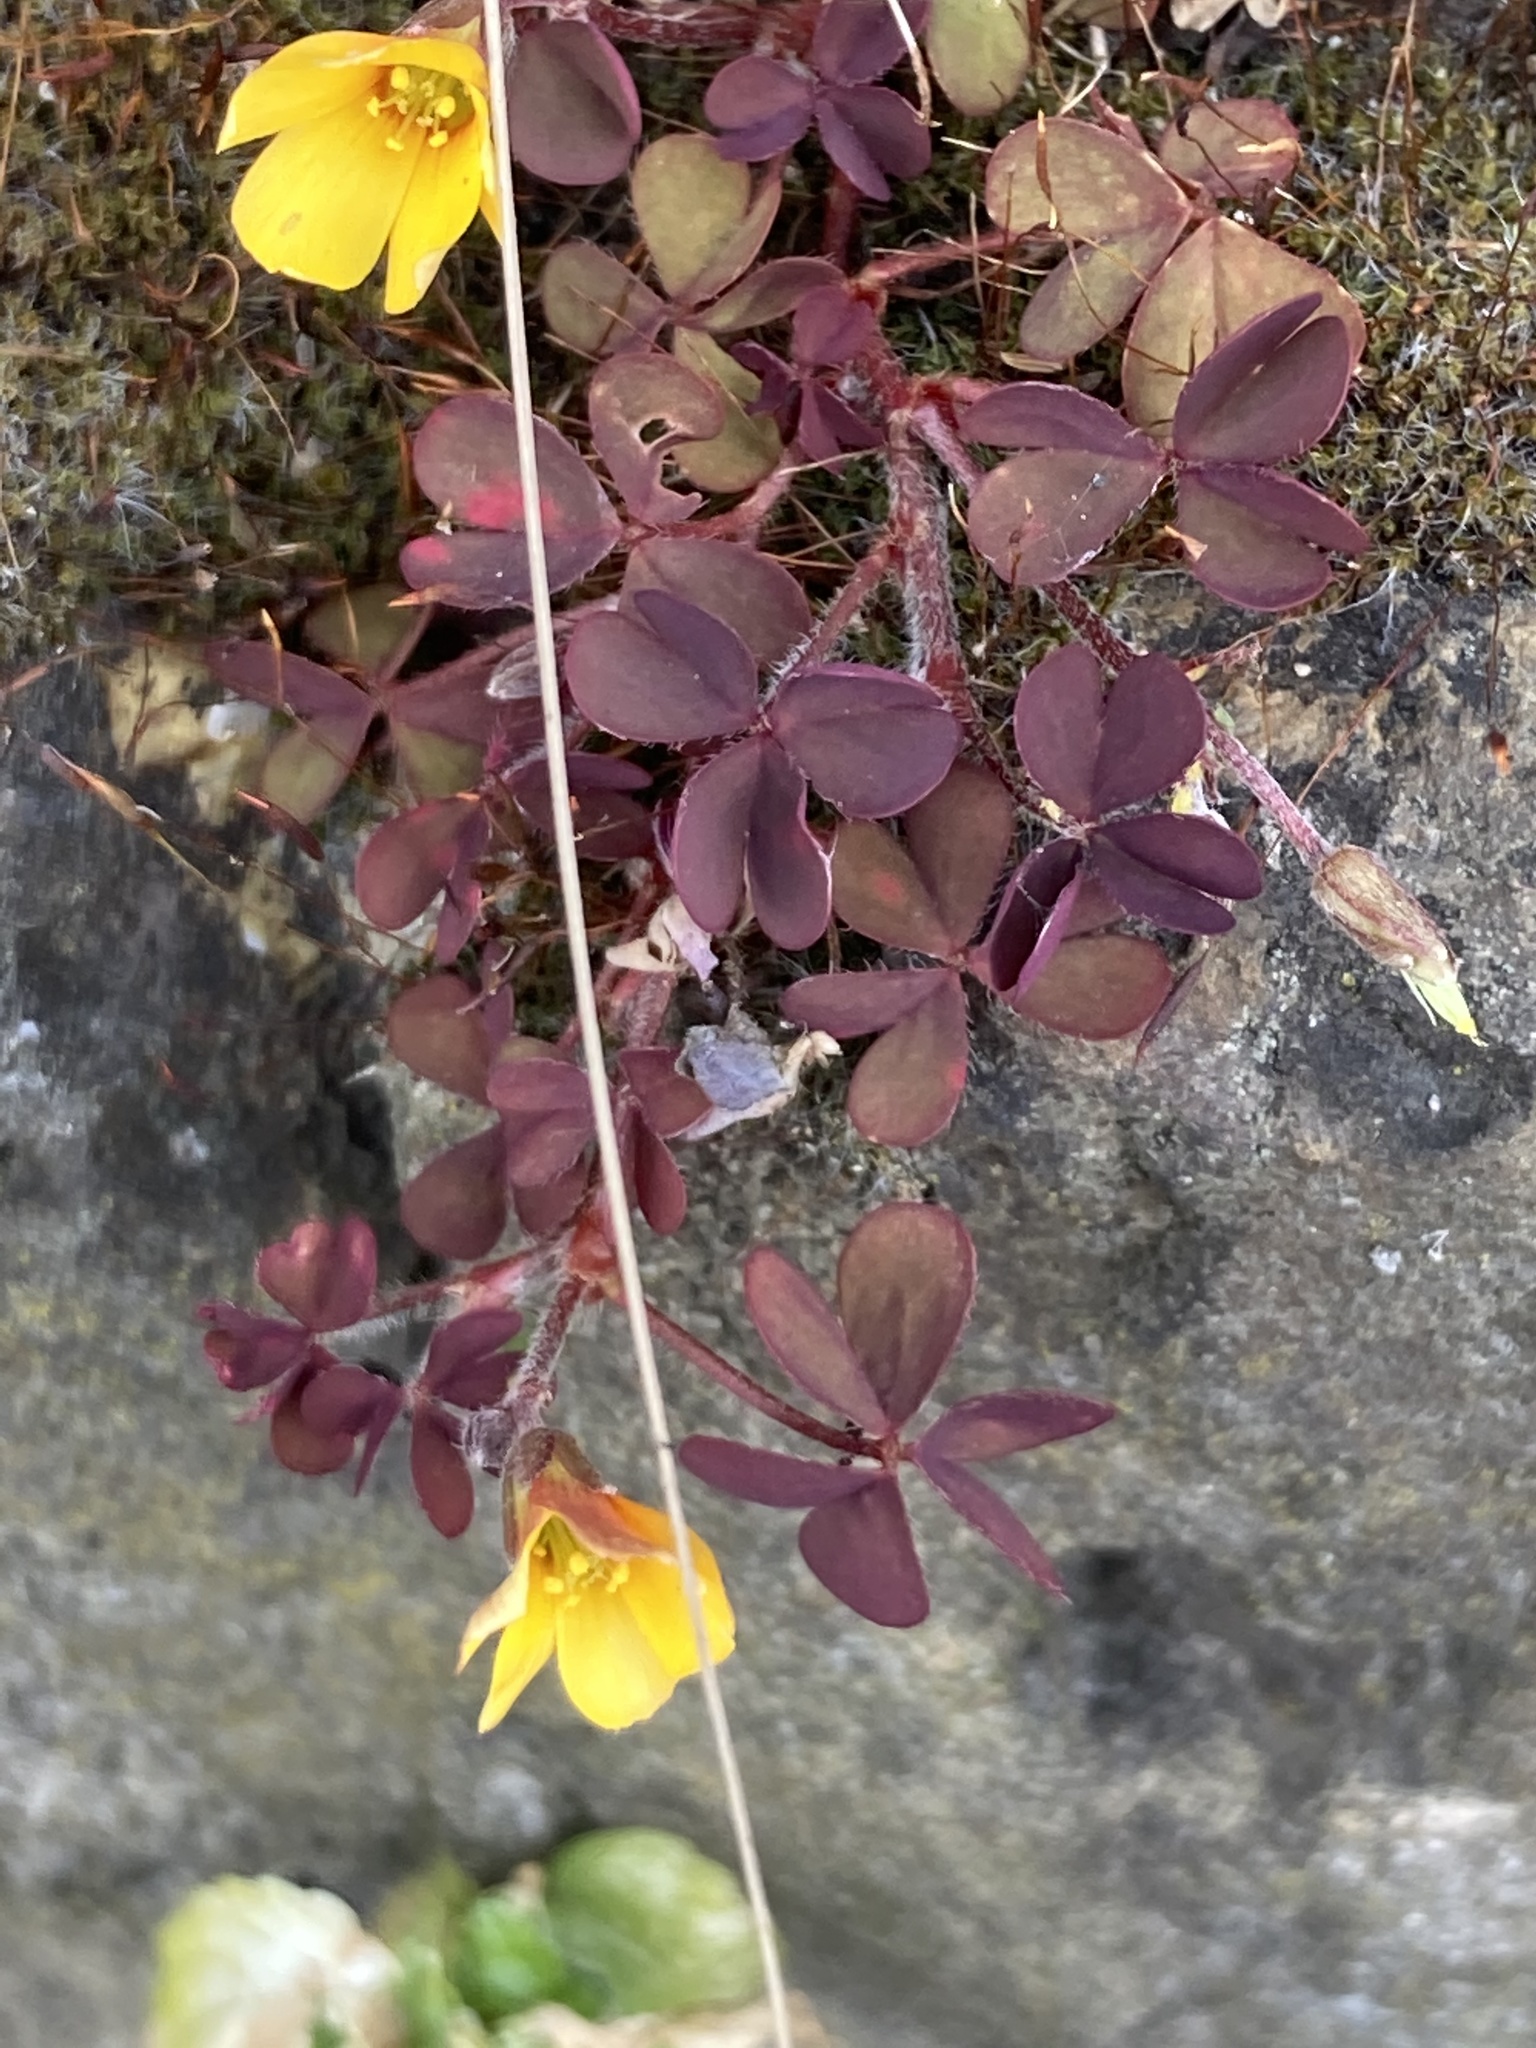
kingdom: Plantae
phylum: Tracheophyta
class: Magnoliopsida
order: Oxalidales
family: Oxalidaceae
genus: Oxalis
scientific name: Oxalis corniculata
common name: Procumbent yellow-sorrel
